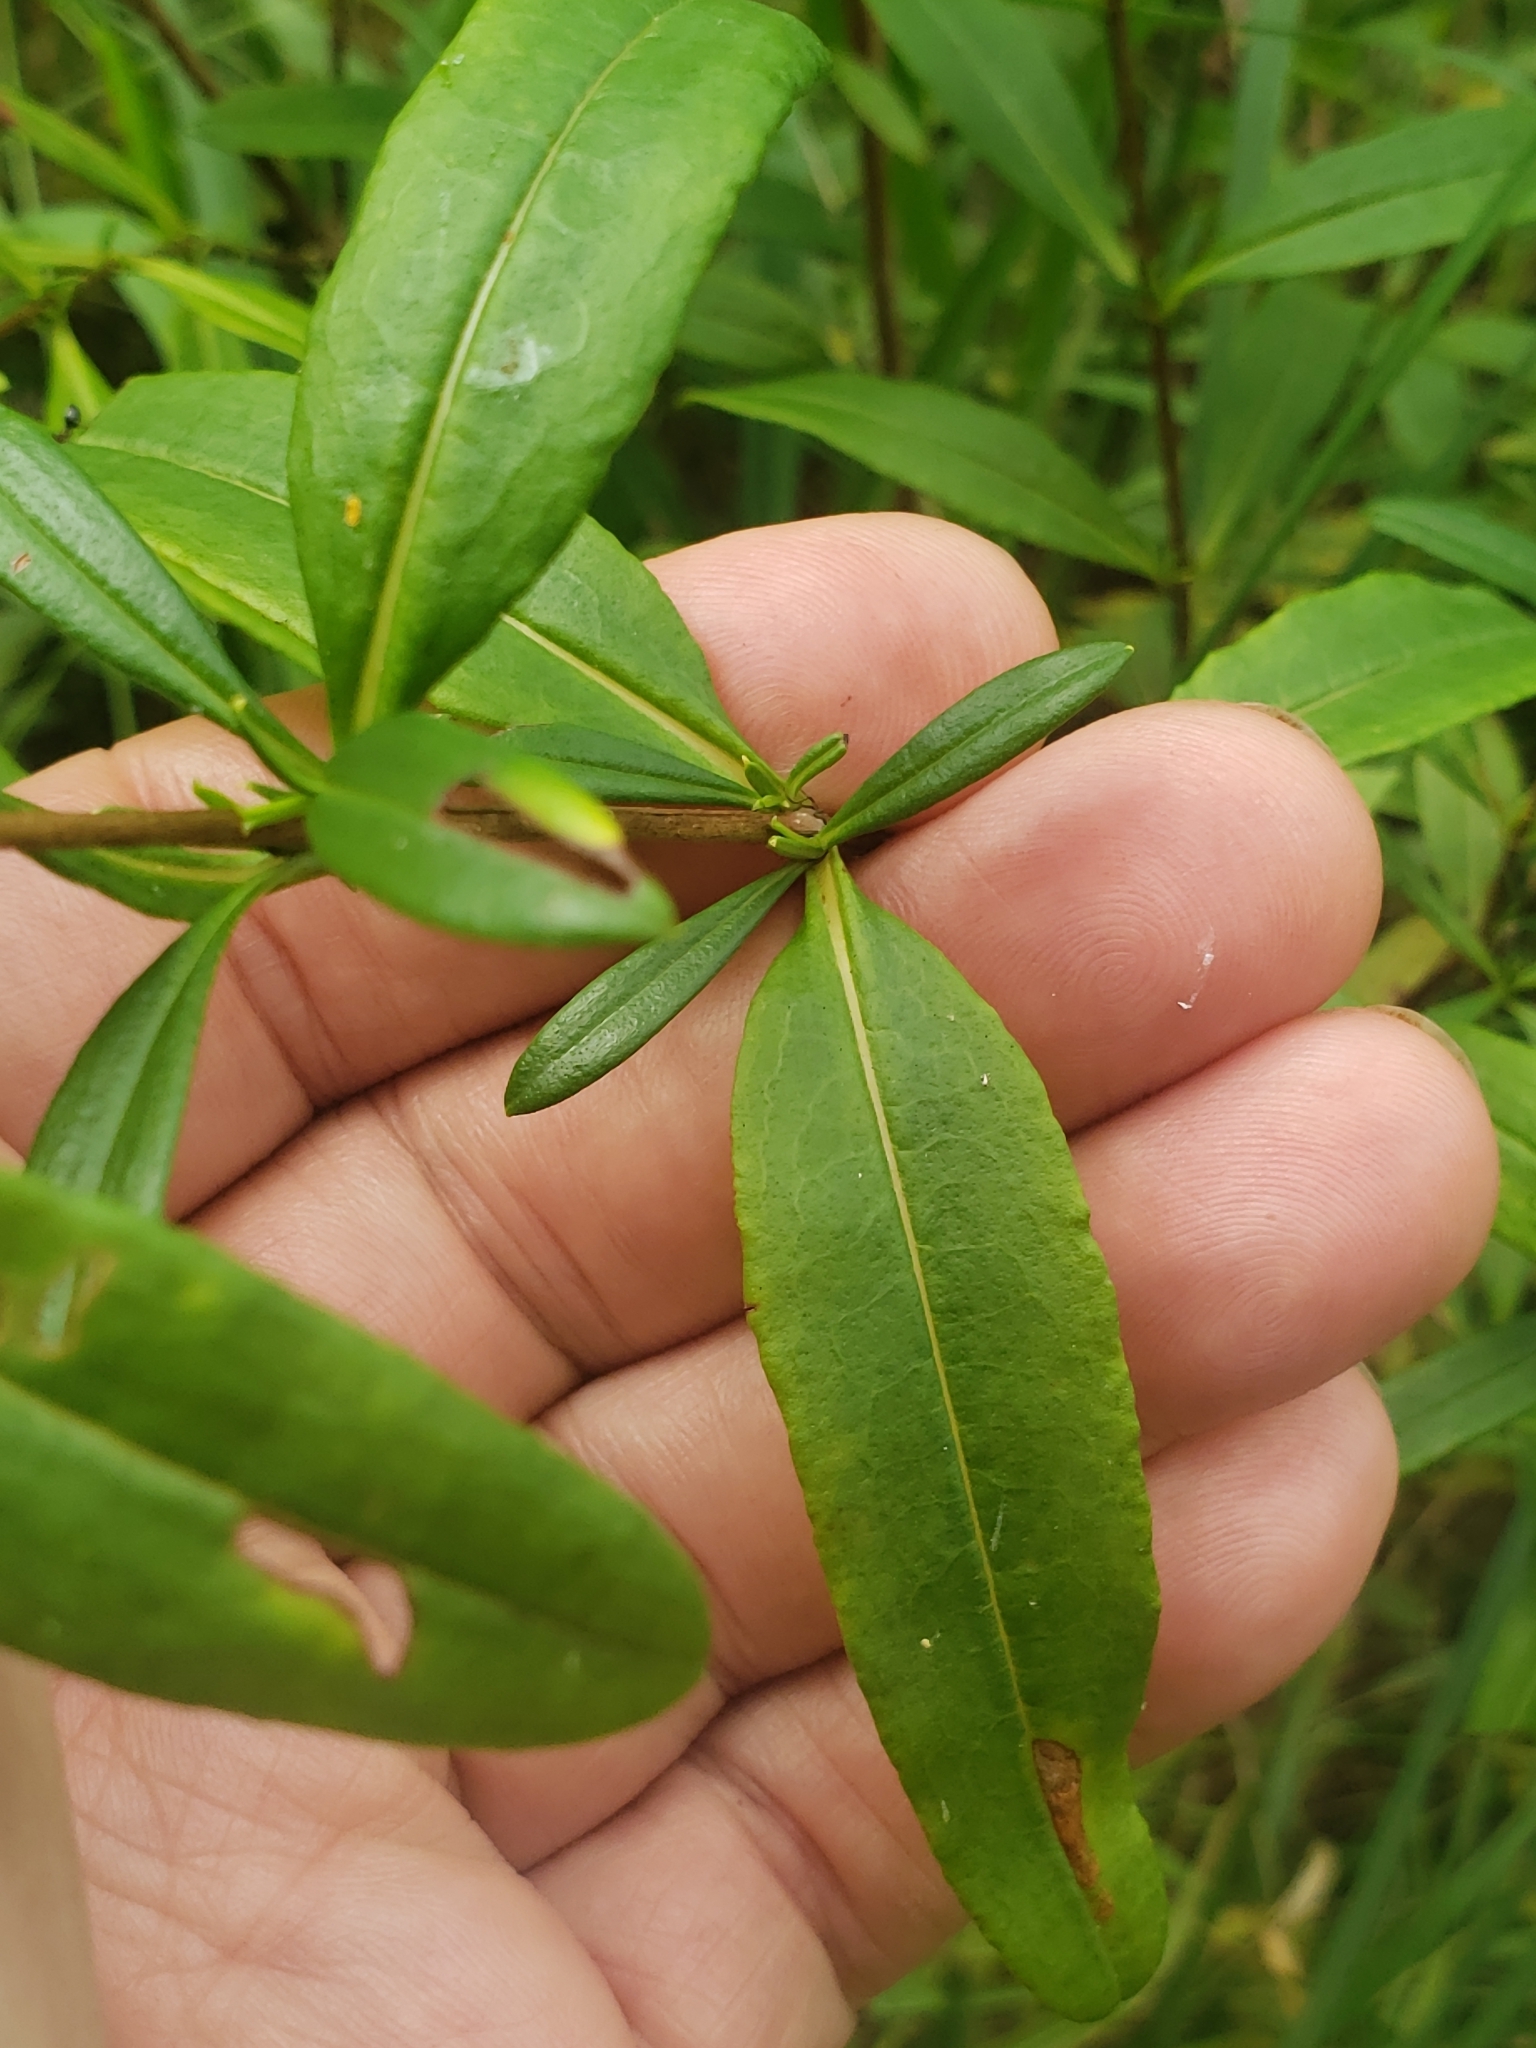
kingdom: Plantae
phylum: Tracheophyta
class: Magnoliopsida
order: Malpighiales
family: Hypericaceae
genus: Hypericum
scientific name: Hypericum prolificum
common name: Shrubby st. john's-wort
